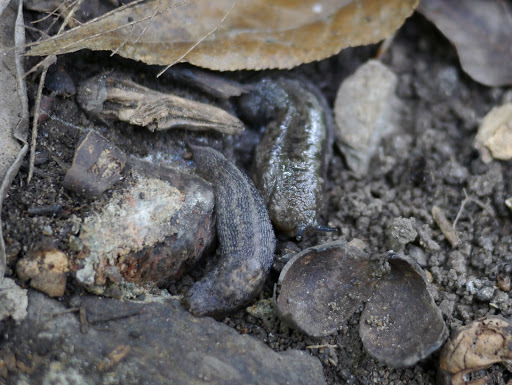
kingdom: Animalia
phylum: Mollusca
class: Gastropoda
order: Stylommatophora
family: Limacidae
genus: Limax
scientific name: Limax maximus
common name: Great grey slug
